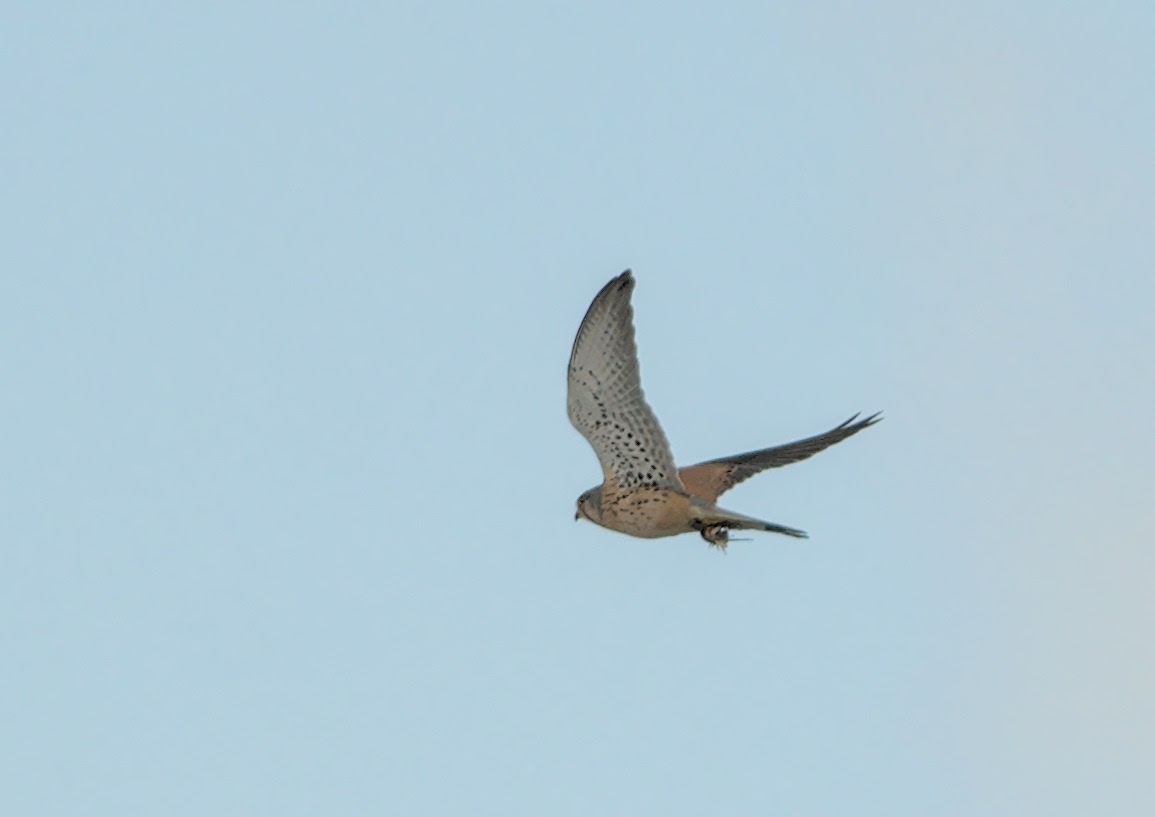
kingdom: Animalia
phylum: Chordata
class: Aves
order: Falconiformes
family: Falconidae
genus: Falco
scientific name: Falco tinnunculus
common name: Common kestrel
